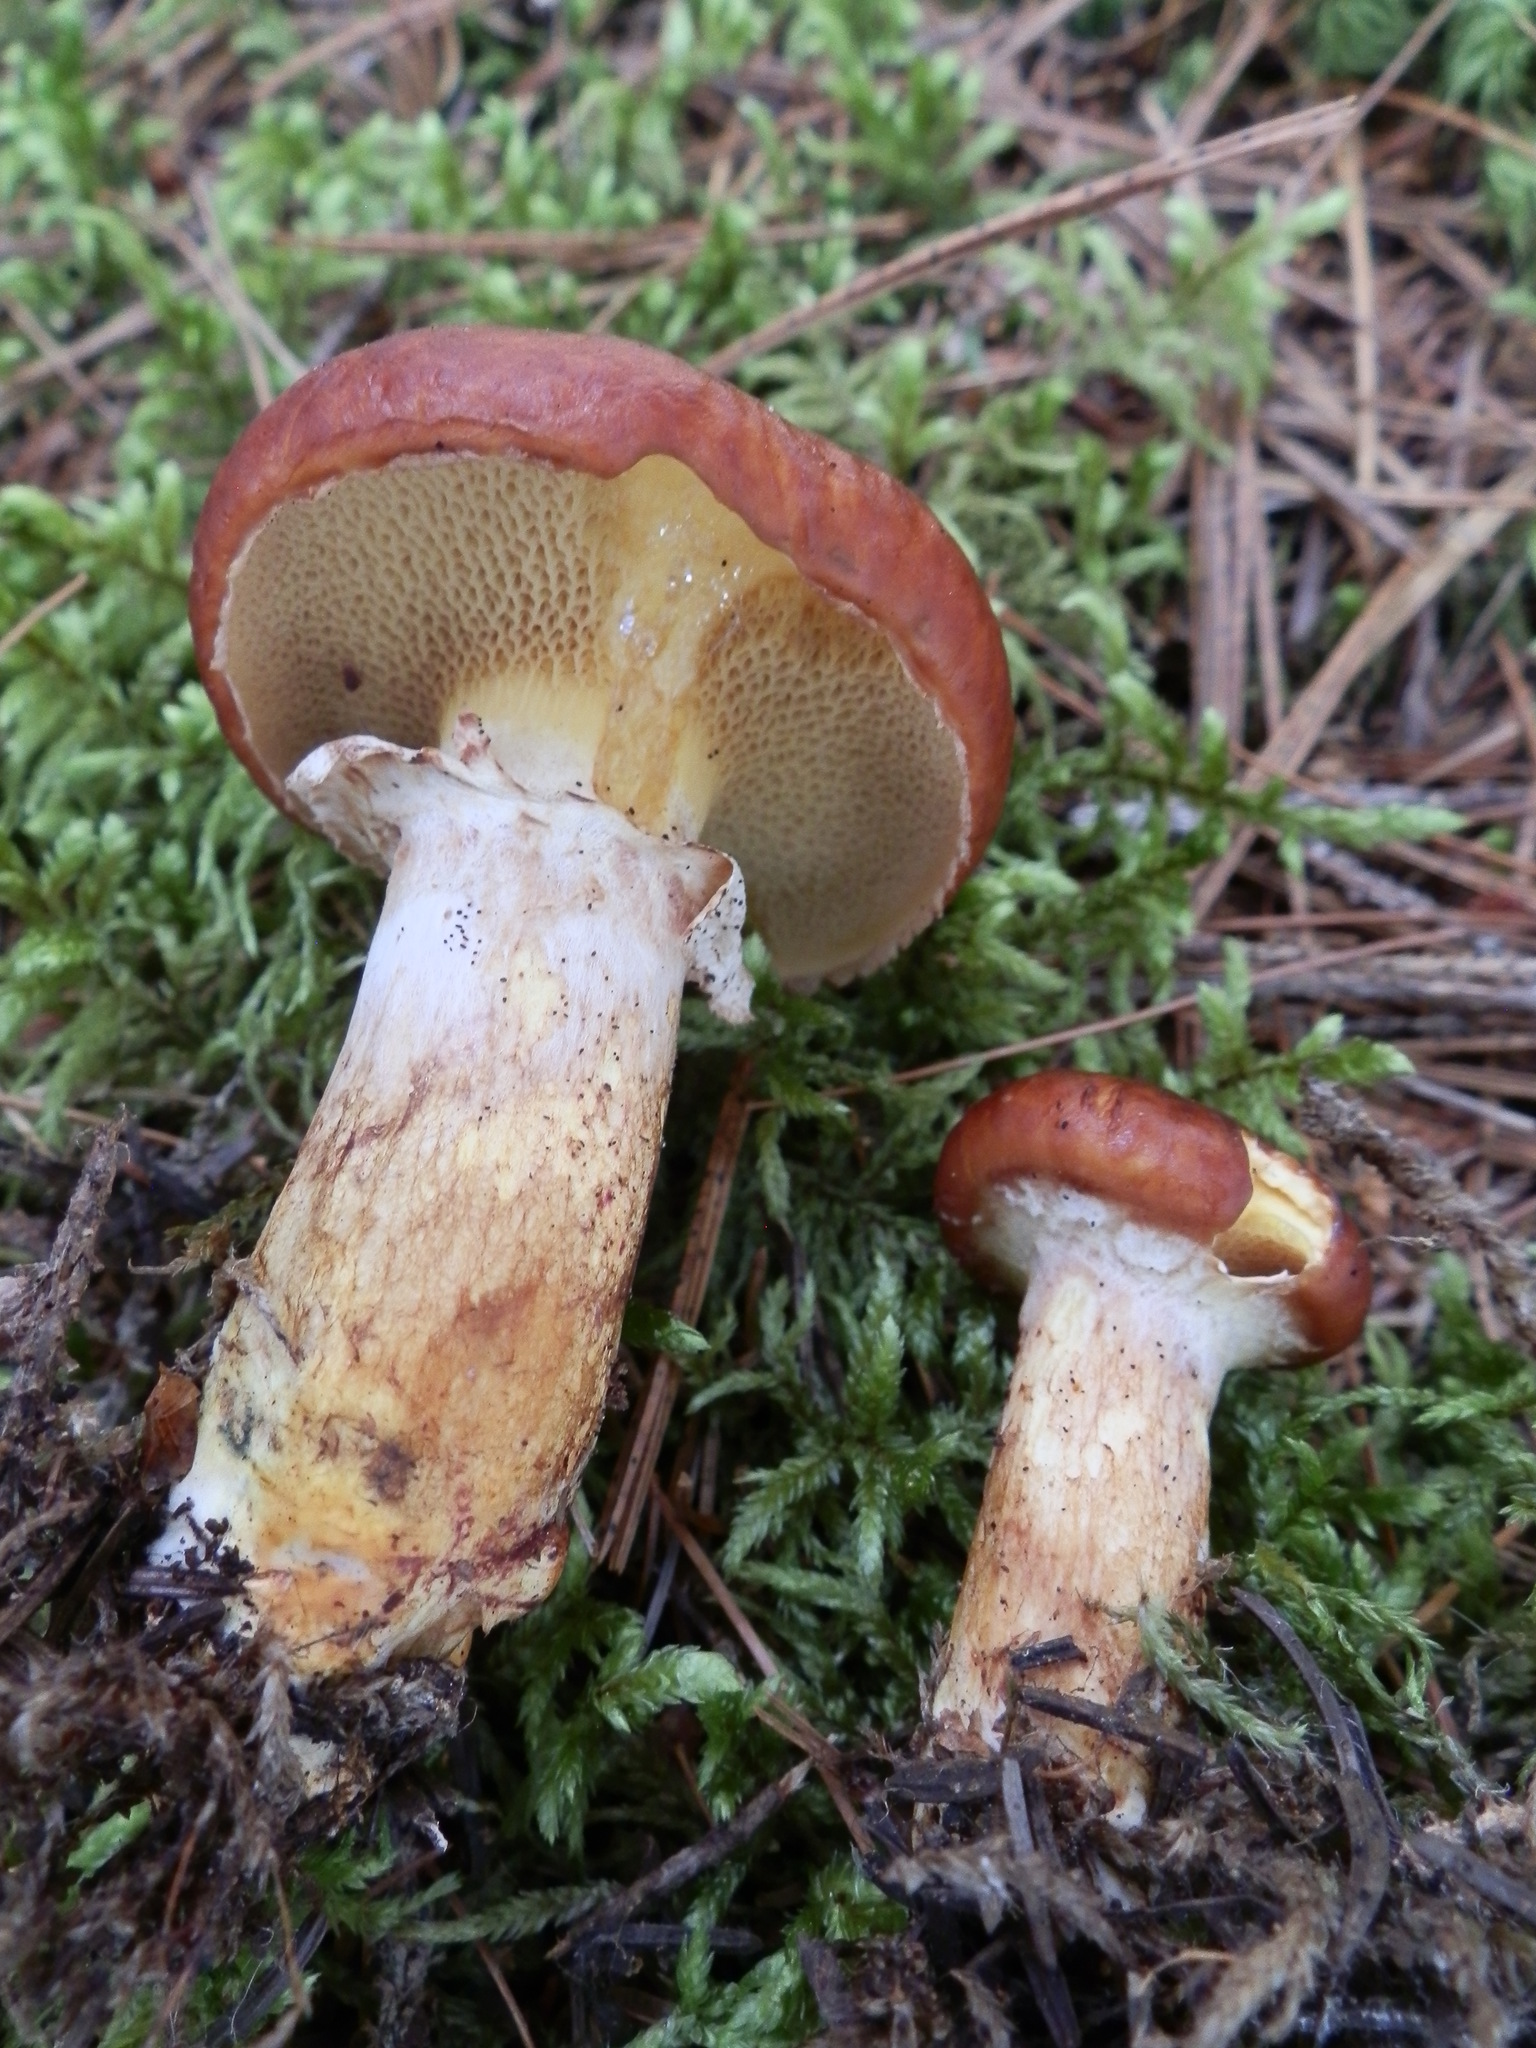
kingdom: Fungi
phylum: Basidiomycota
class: Agaricomycetes
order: Boletales
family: Suillaceae
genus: Boletinus
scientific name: Boletinus glandulosus
